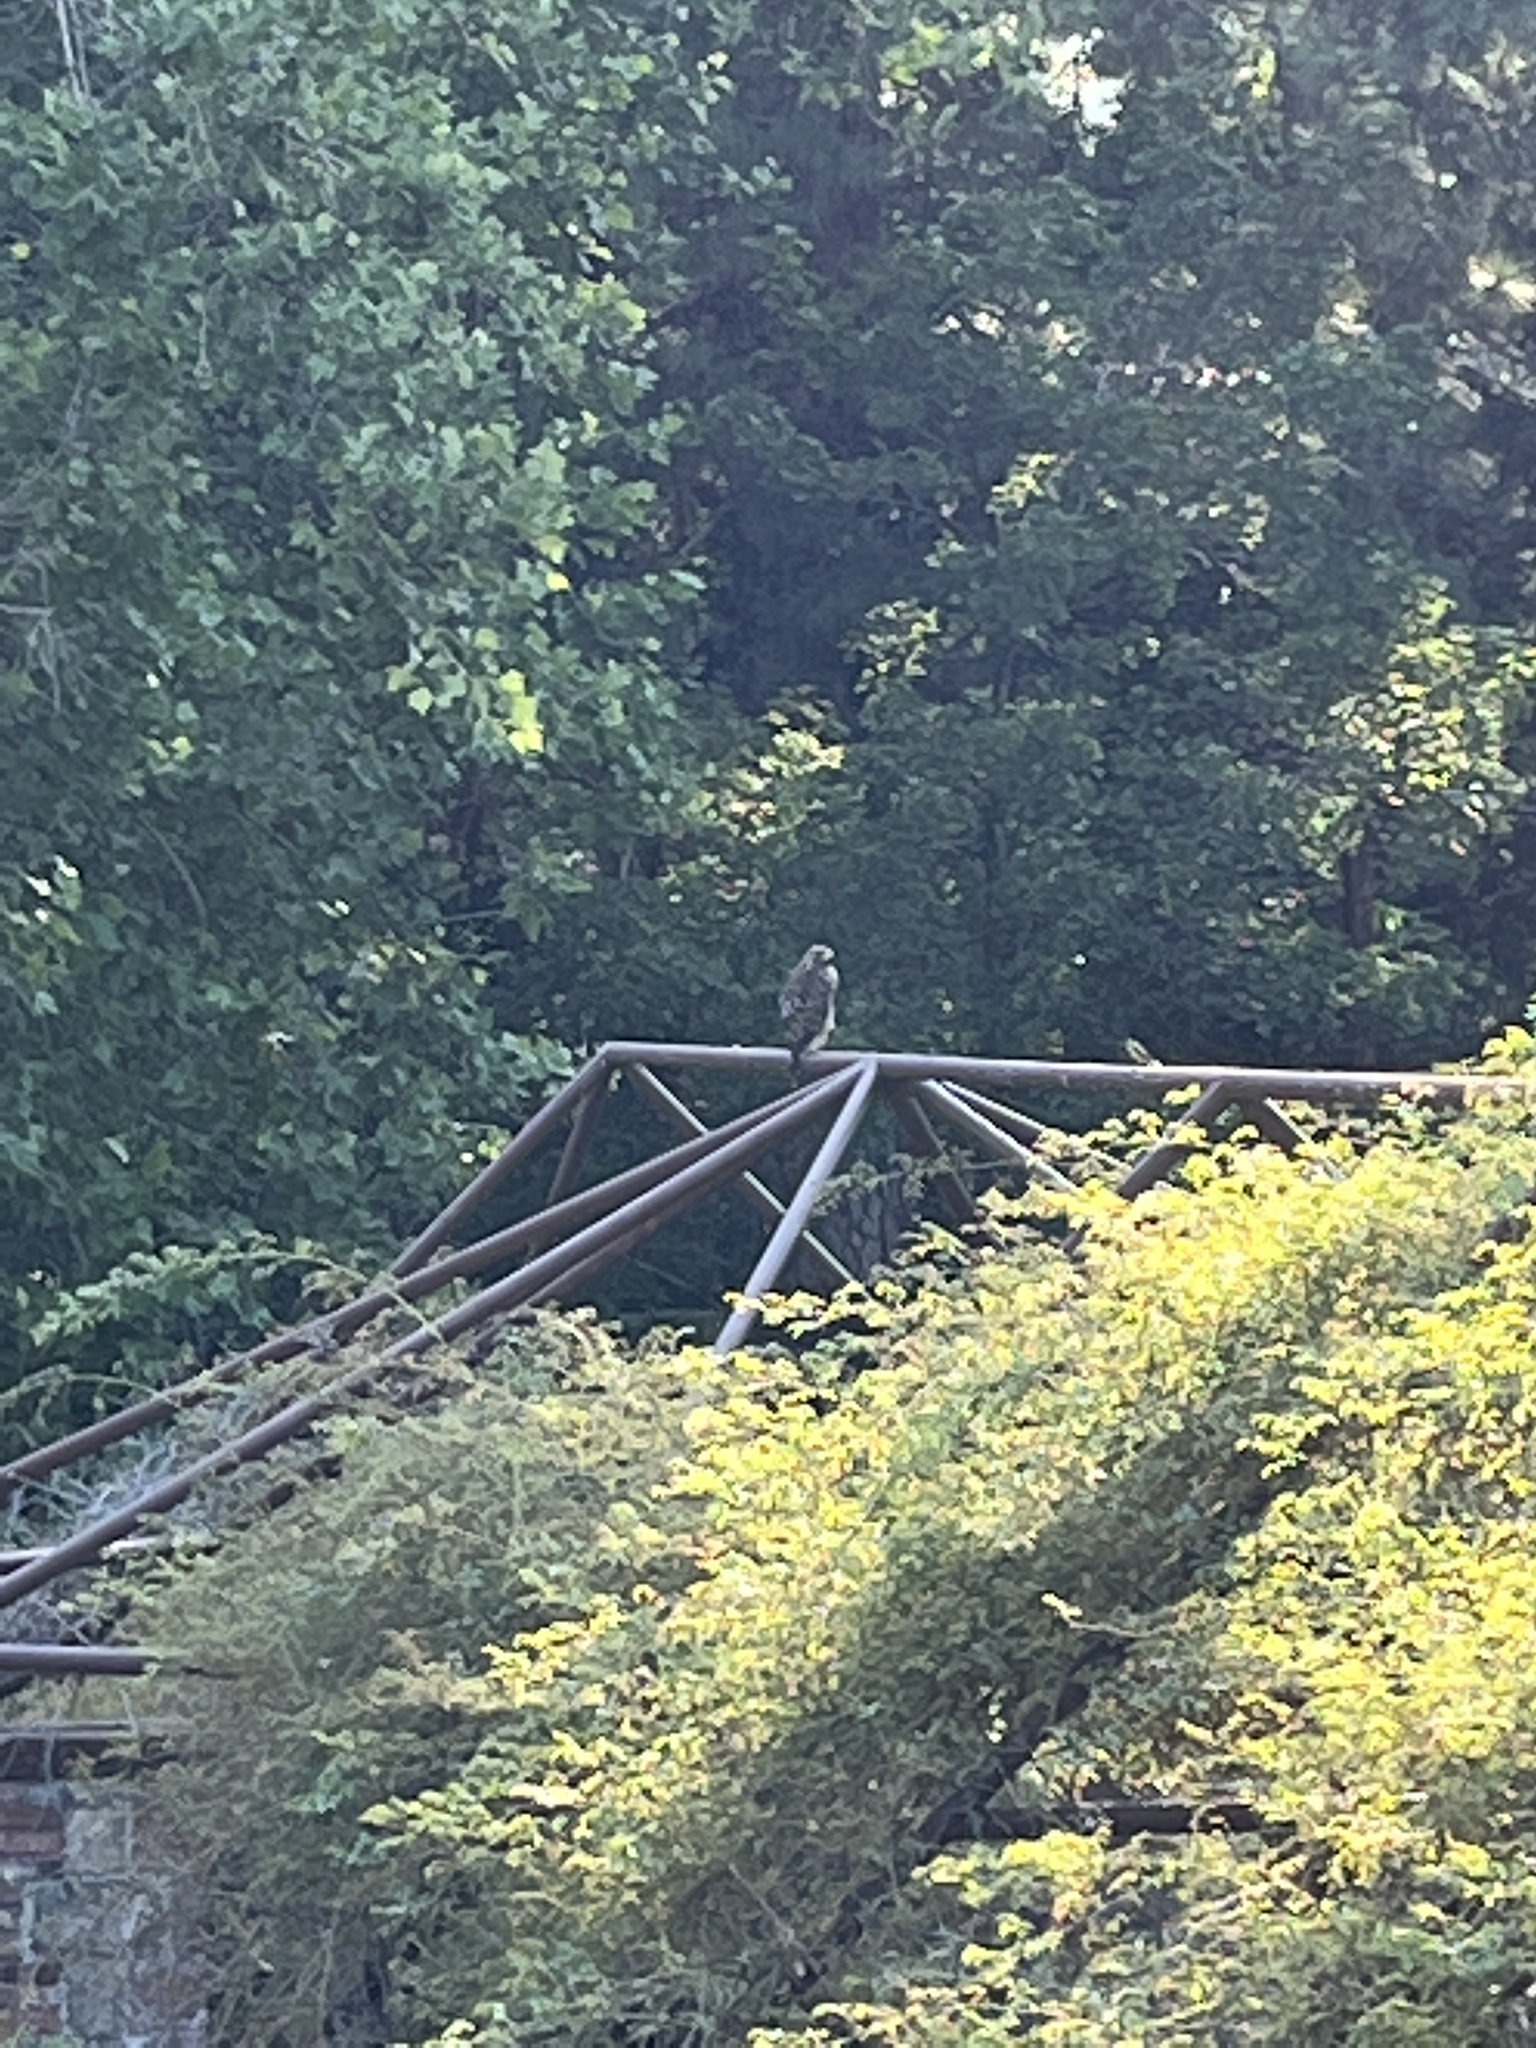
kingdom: Animalia
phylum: Chordata
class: Aves
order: Accipitriformes
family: Accipitridae
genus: Buteo
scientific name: Buteo lineatus
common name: Red-shouldered hawk
